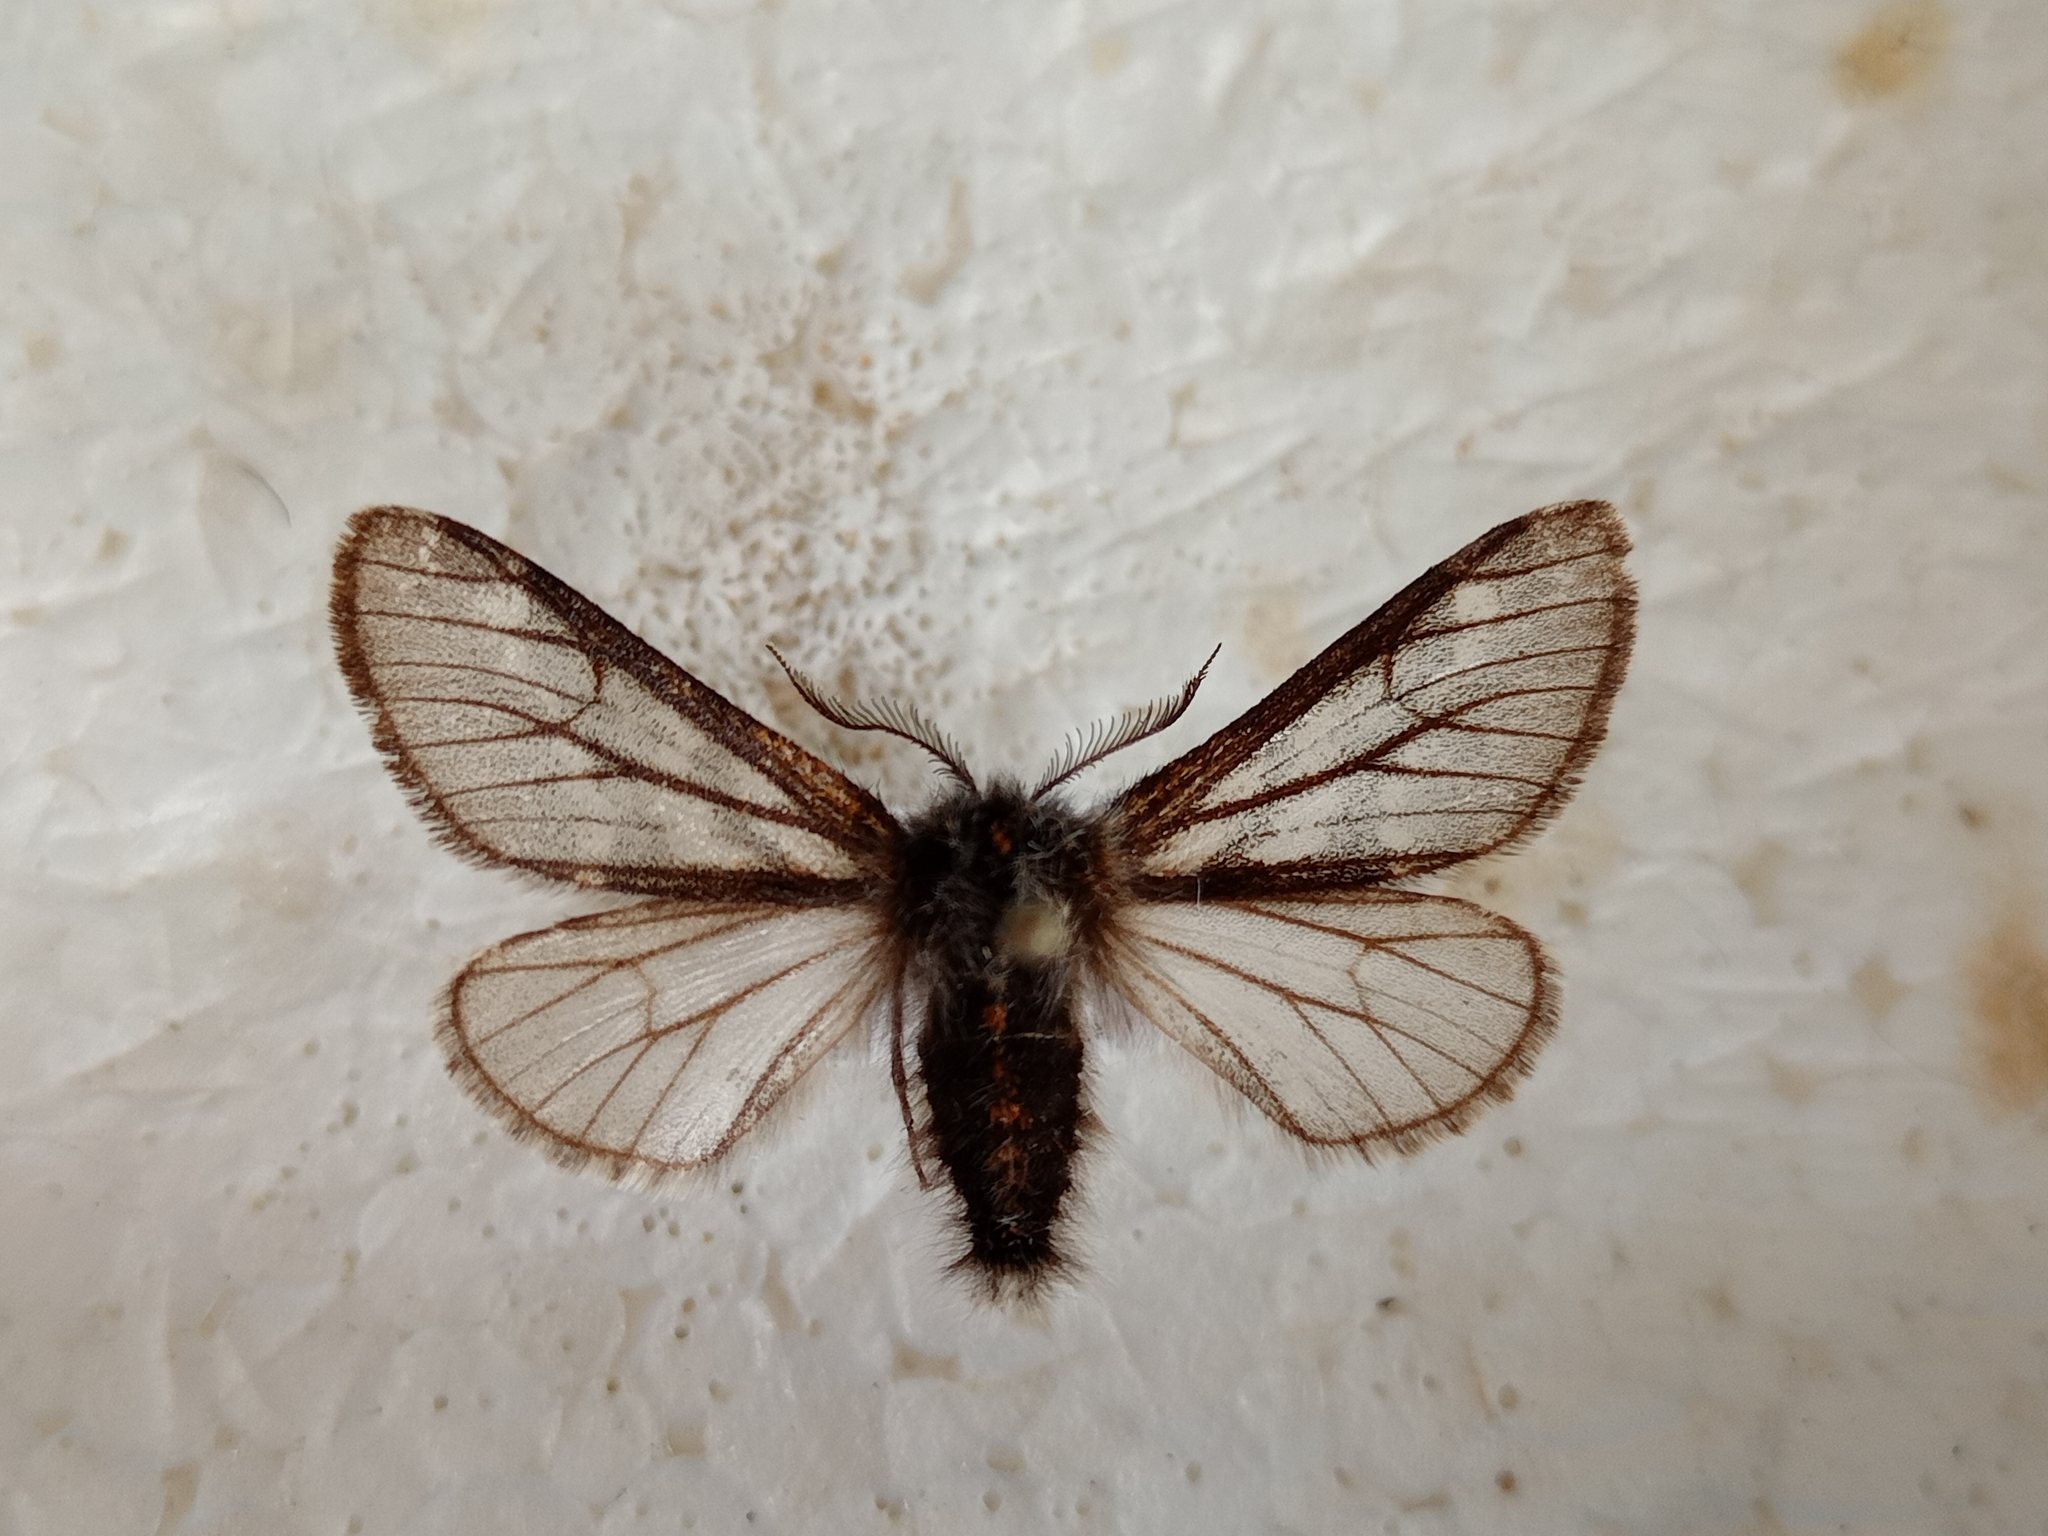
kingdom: Animalia
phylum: Arthropoda
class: Insecta
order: Lepidoptera
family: Geometridae
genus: Lycia
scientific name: Lycia isabellae
